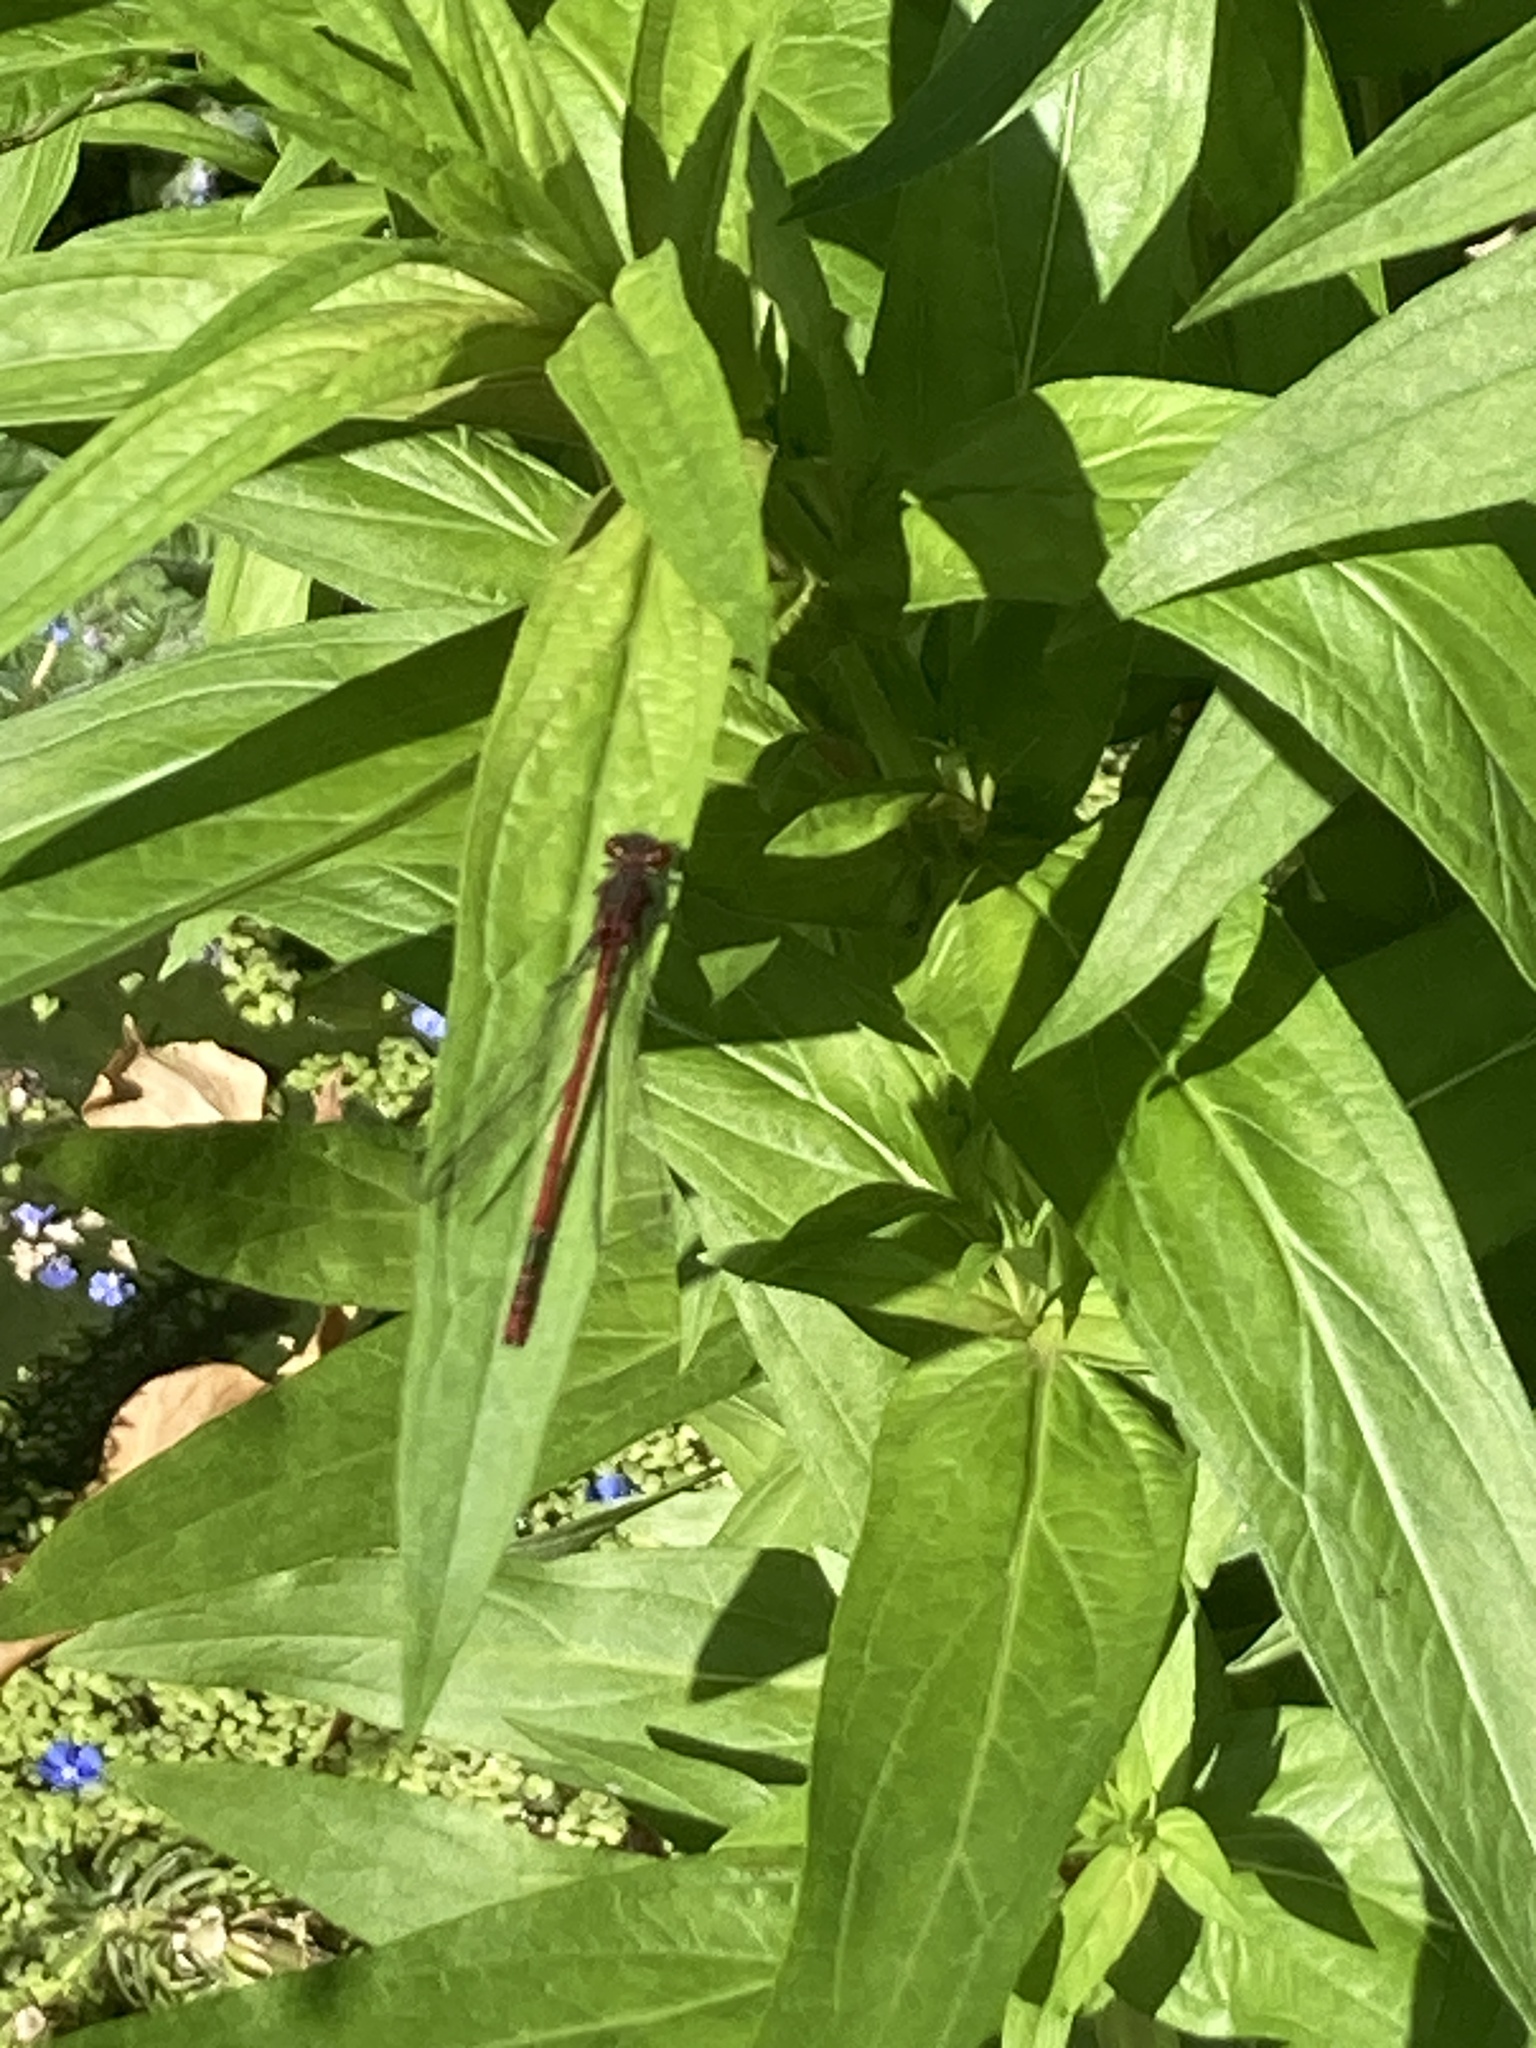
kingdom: Animalia
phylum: Arthropoda
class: Insecta
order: Odonata
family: Coenagrionidae
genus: Pyrrhosoma
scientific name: Pyrrhosoma nymphula
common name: Large red damsel
